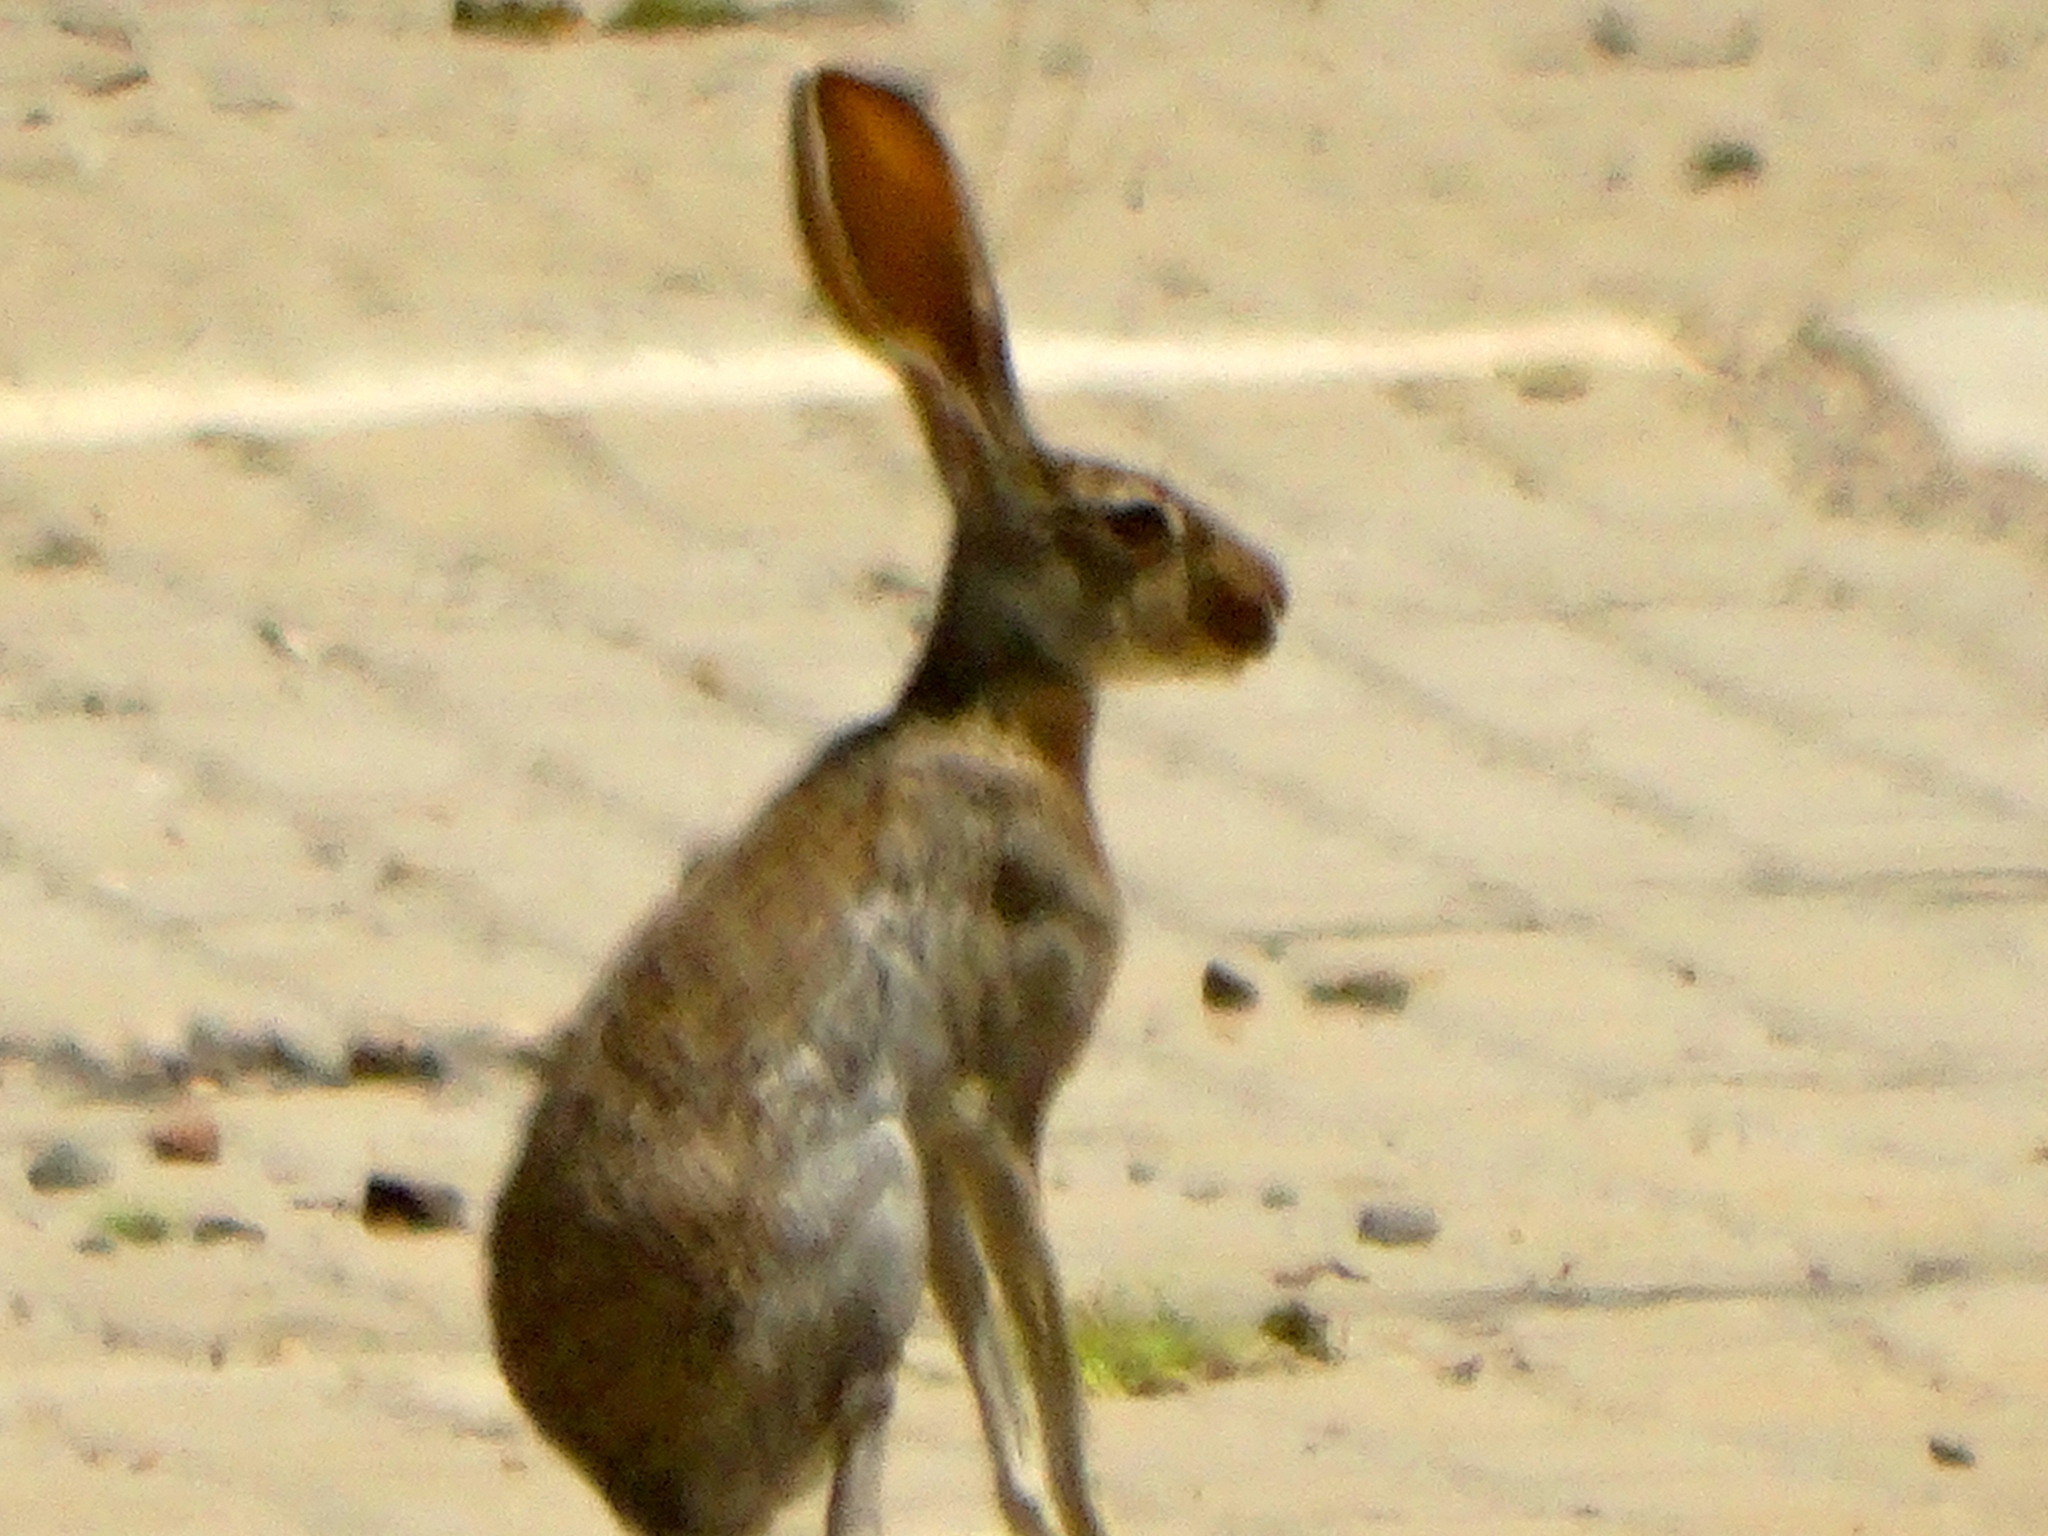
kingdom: Animalia
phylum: Chordata
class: Mammalia
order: Lagomorpha
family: Leporidae
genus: Lepus
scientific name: Lepus alleni
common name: Antelope jackrabbit
